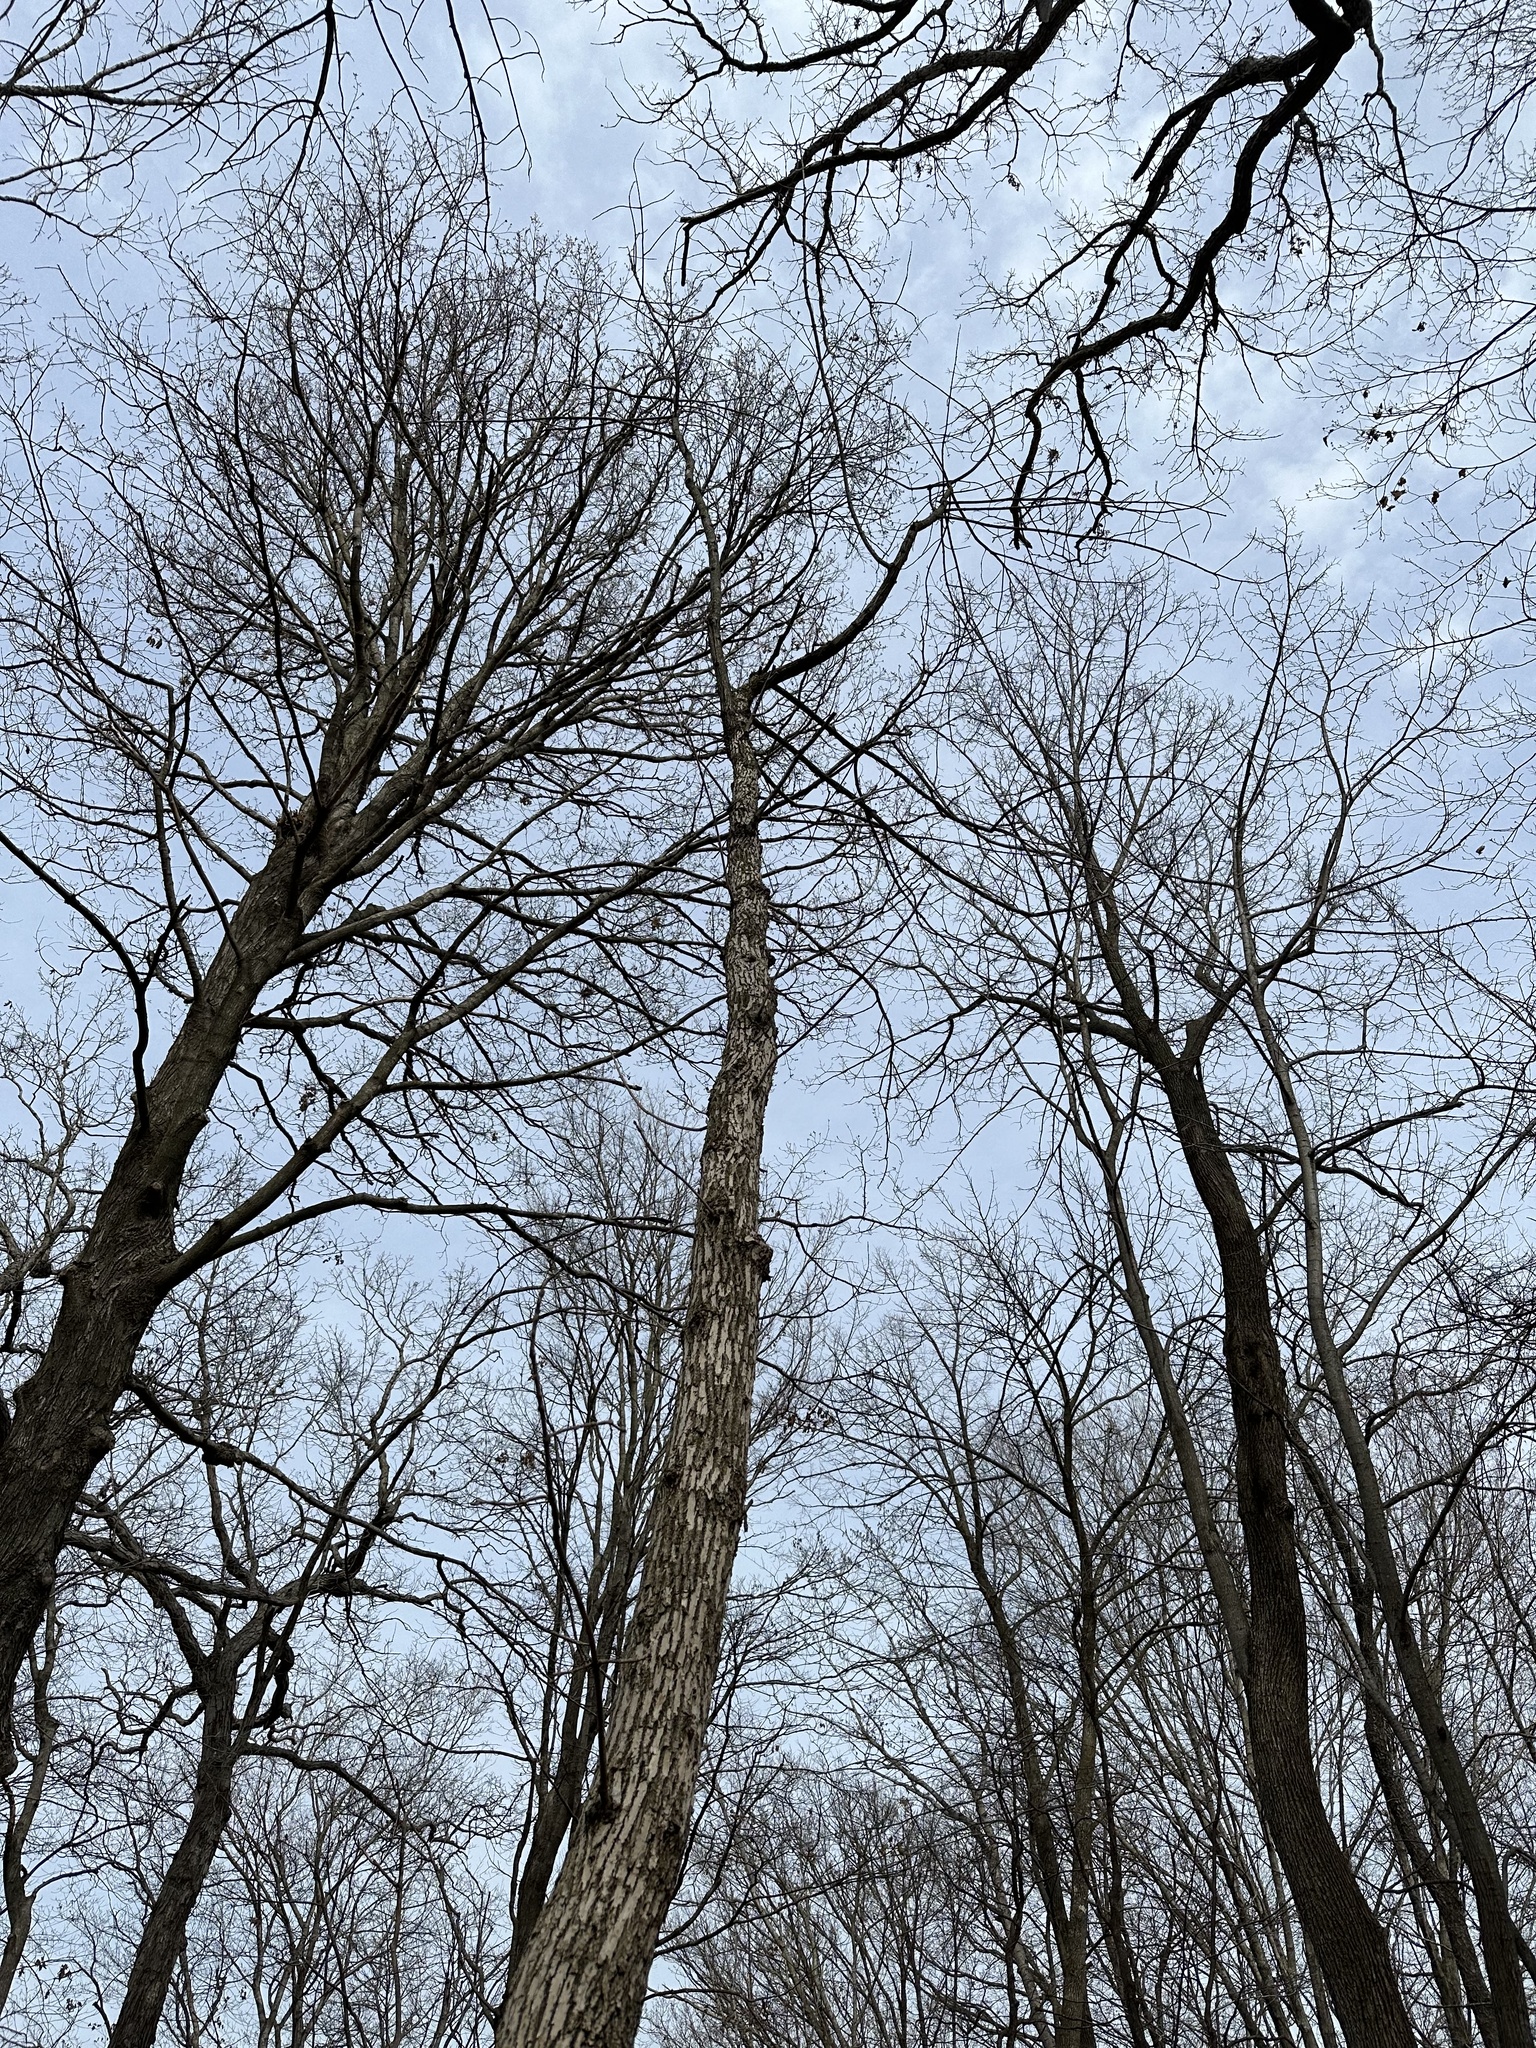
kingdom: Animalia
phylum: Arthropoda
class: Insecta
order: Coleoptera
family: Buprestidae
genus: Agrilus
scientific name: Agrilus planipennis
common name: Emerald ash borer
